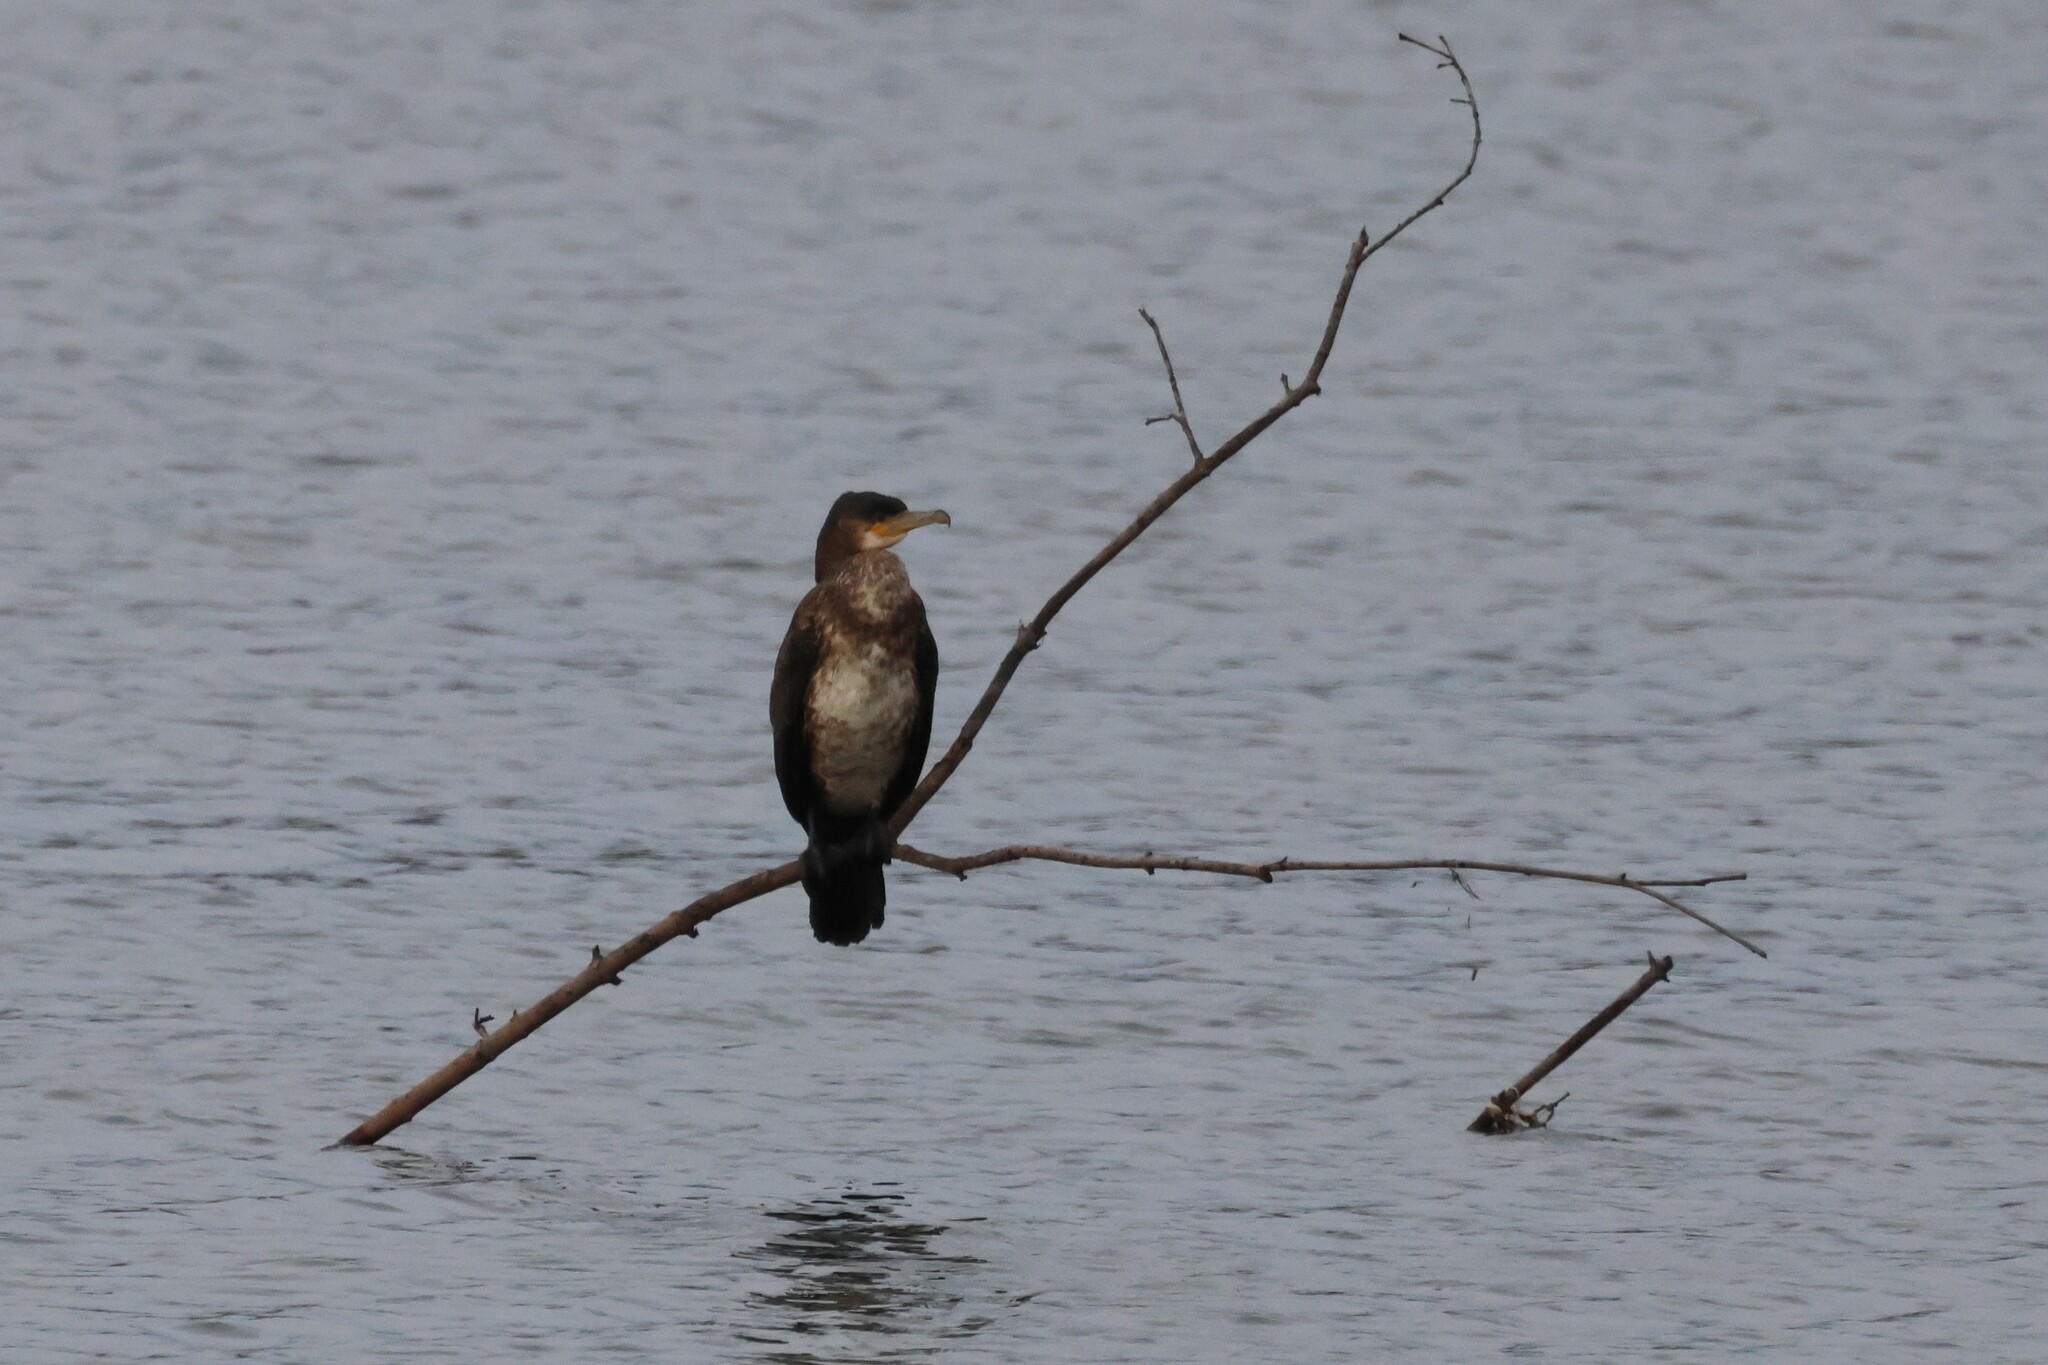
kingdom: Animalia
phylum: Chordata
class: Aves
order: Suliformes
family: Phalacrocoracidae
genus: Phalacrocorax
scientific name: Phalacrocorax carbo
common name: Great cormorant
